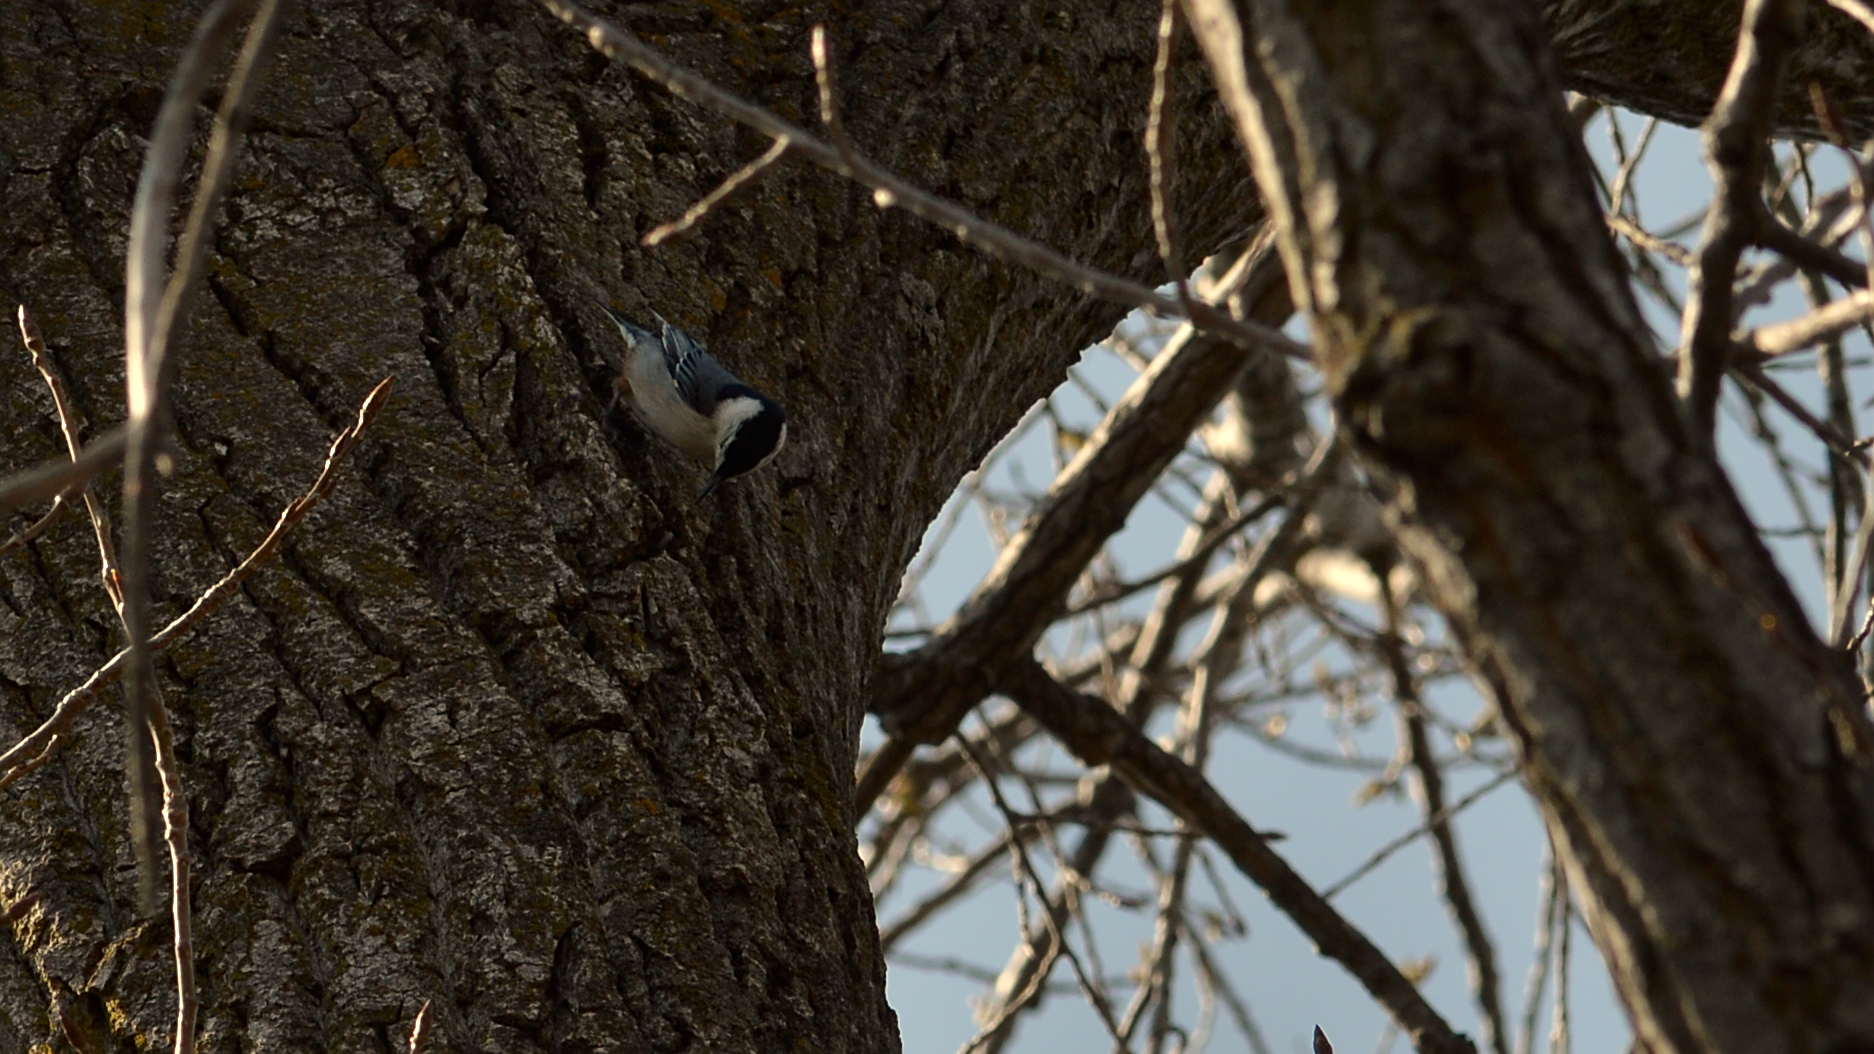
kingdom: Animalia
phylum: Chordata
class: Aves
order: Passeriformes
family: Sittidae
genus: Sitta
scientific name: Sitta carolinensis
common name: White-breasted nuthatch
